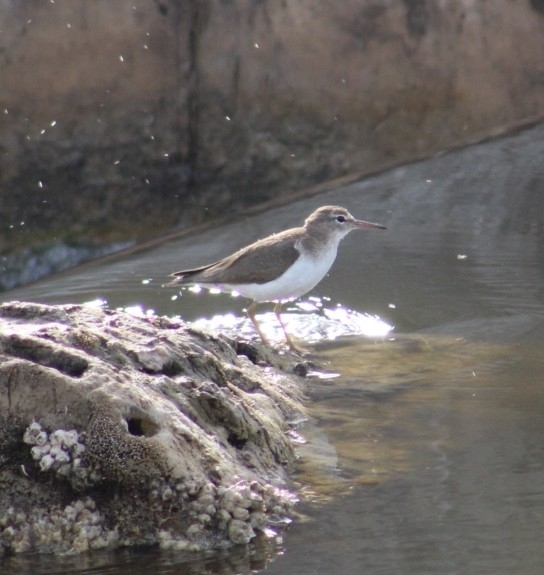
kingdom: Animalia
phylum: Chordata
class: Aves
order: Charadriiformes
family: Scolopacidae
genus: Actitis
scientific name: Actitis macularius
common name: Spotted sandpiper
